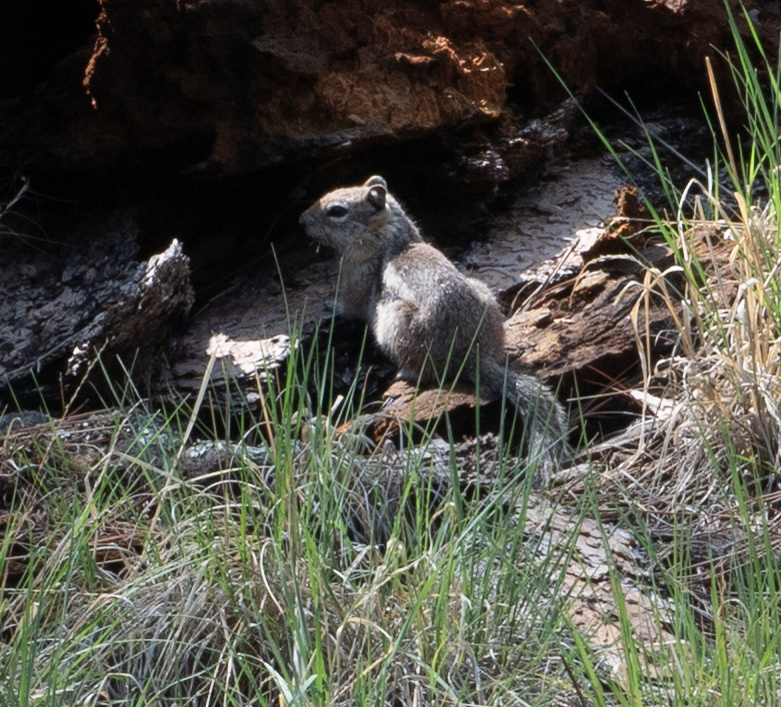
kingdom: Animalia
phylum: Chordata
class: Mammalia
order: Rodentia
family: Sciuridae
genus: Callospermophilus
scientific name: Callospermophilus lateralis
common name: Golden-mantled ground squirrel
